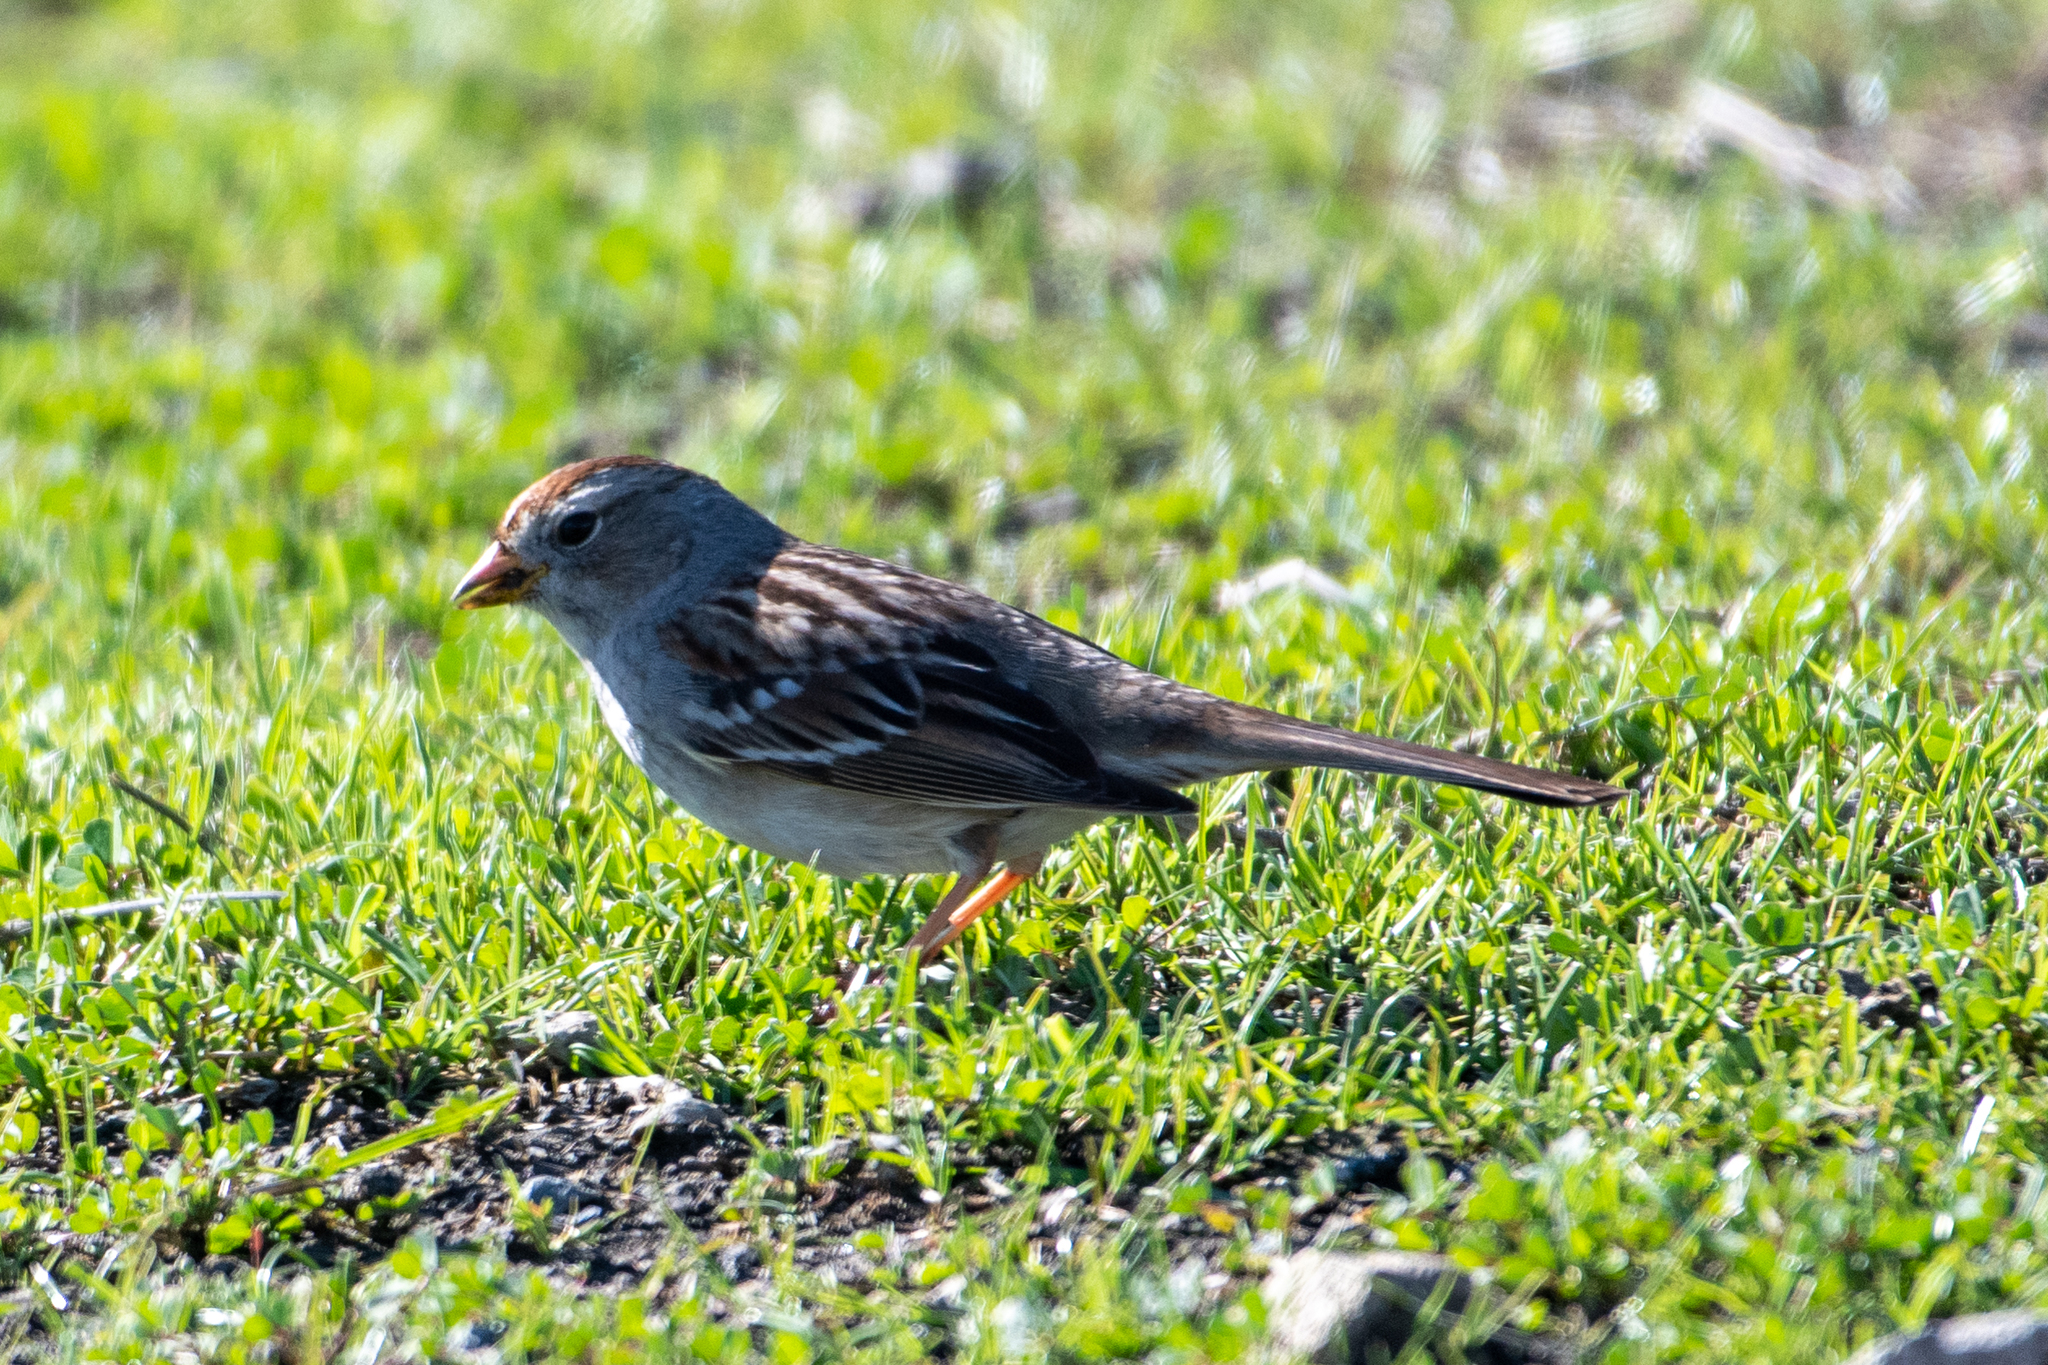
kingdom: Animalia
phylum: Chordata
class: Aves
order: Passeriformes
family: Passerellidae
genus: Zonotrichia
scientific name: Zonotrichia leucophrys
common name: White-crowned sparrow
